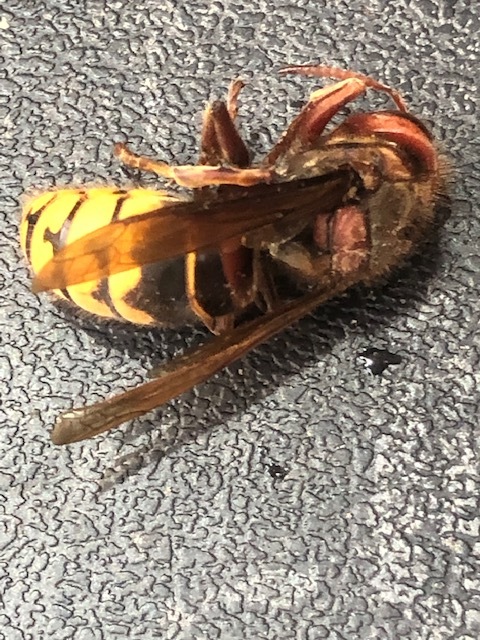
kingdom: Animalia
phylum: Arthropoda
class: Insecta
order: Hymenoptera
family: Vespidae
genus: Vespa
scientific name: Vespa crabro
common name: Hornet
